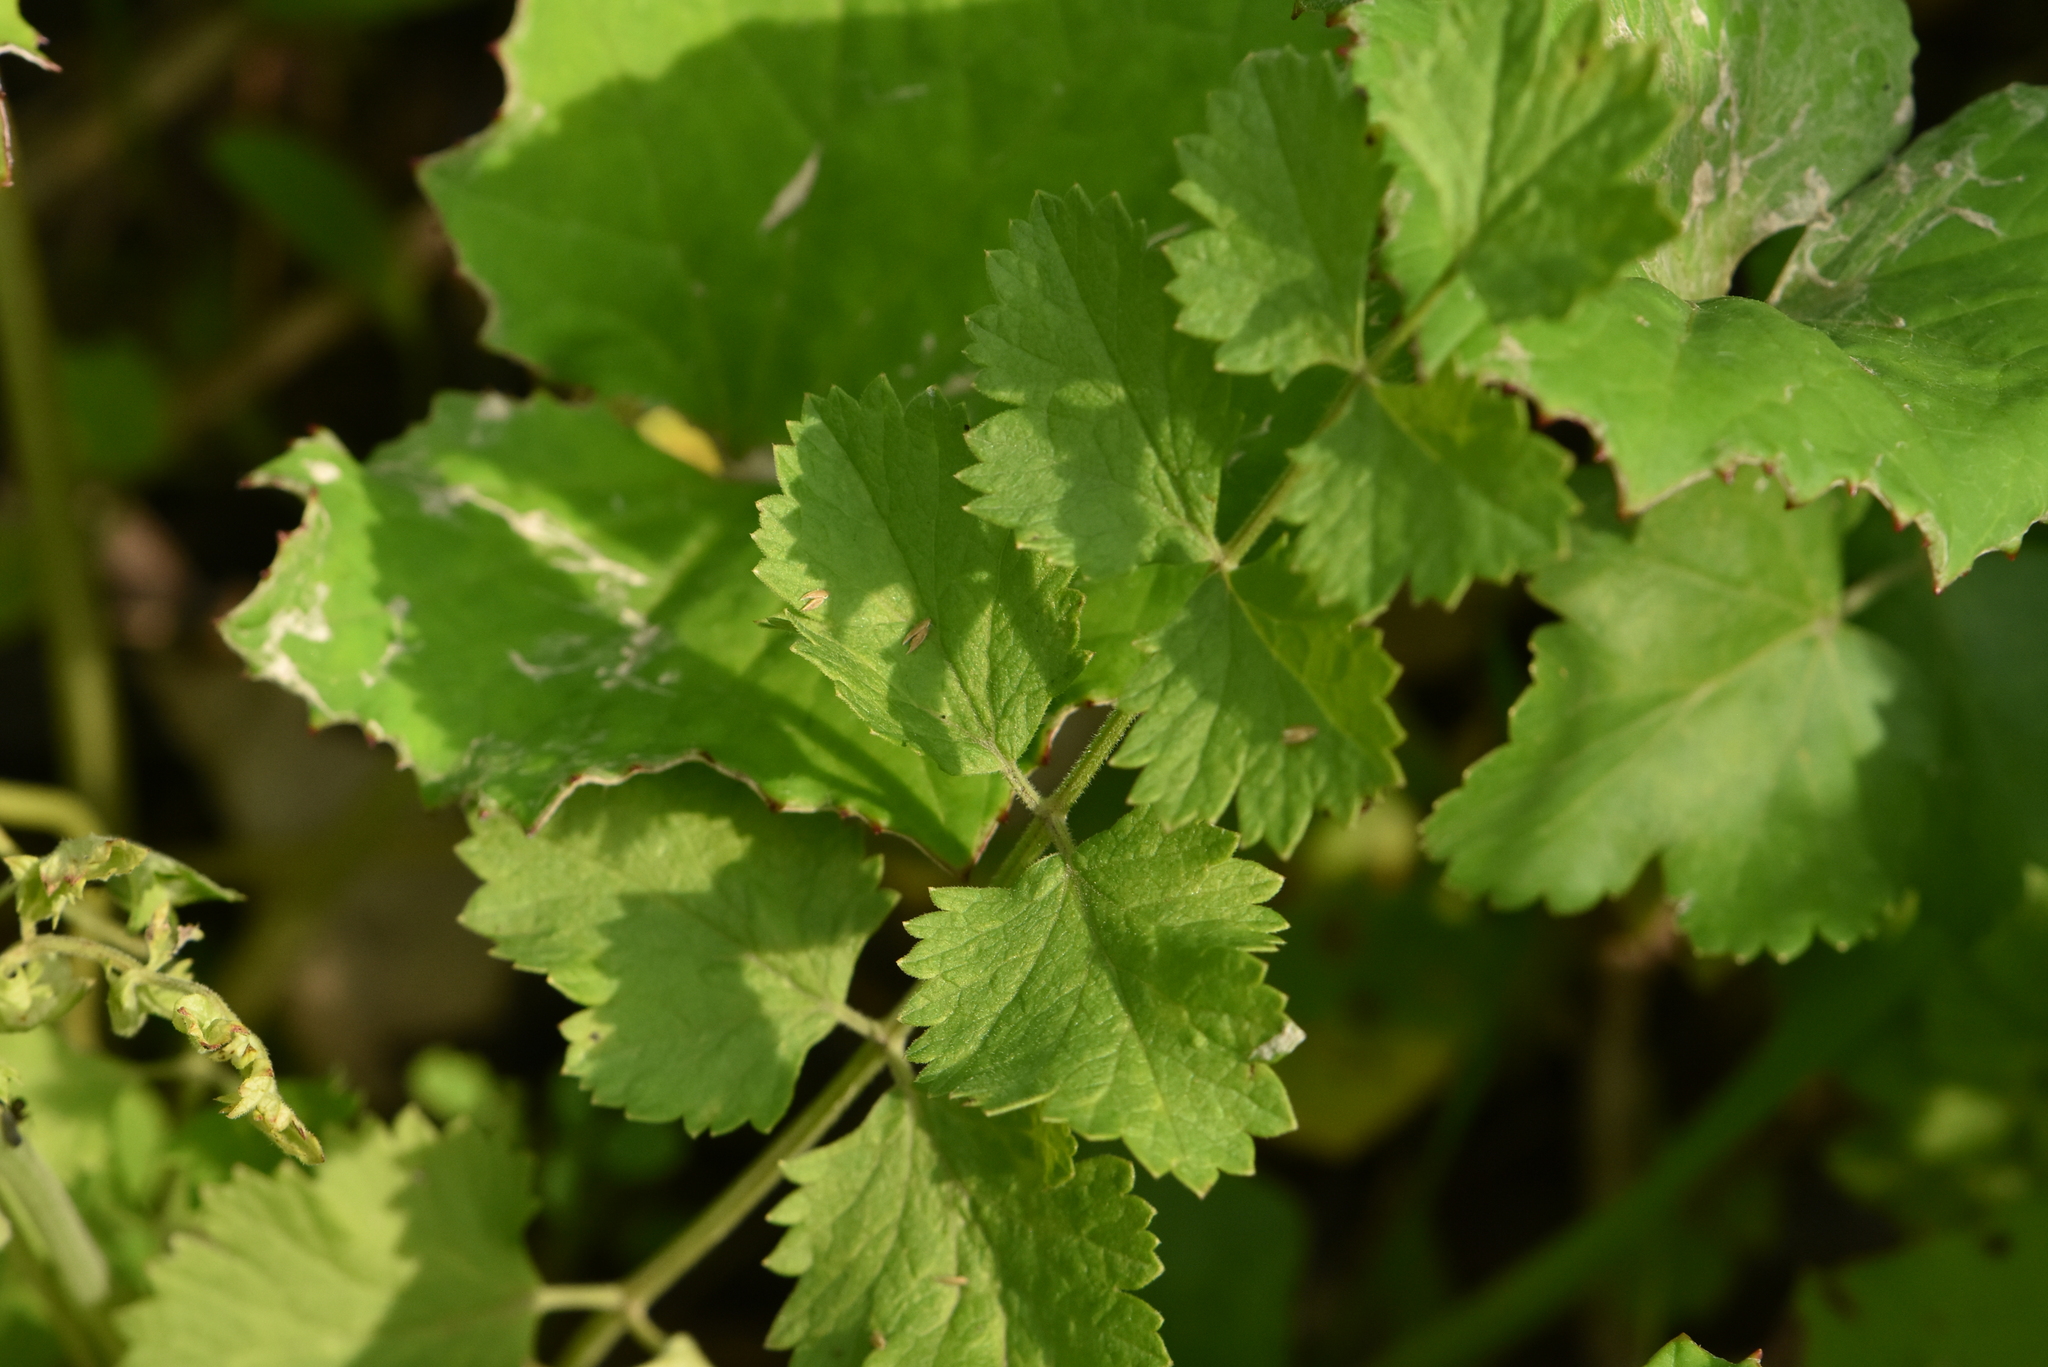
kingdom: Plantae
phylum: Tracheophyta
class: Magnoliopsida
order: Apiales
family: Apiaceae
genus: Pimpinella
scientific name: Pimpinella saxifraga
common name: Burnet-saxifrage
